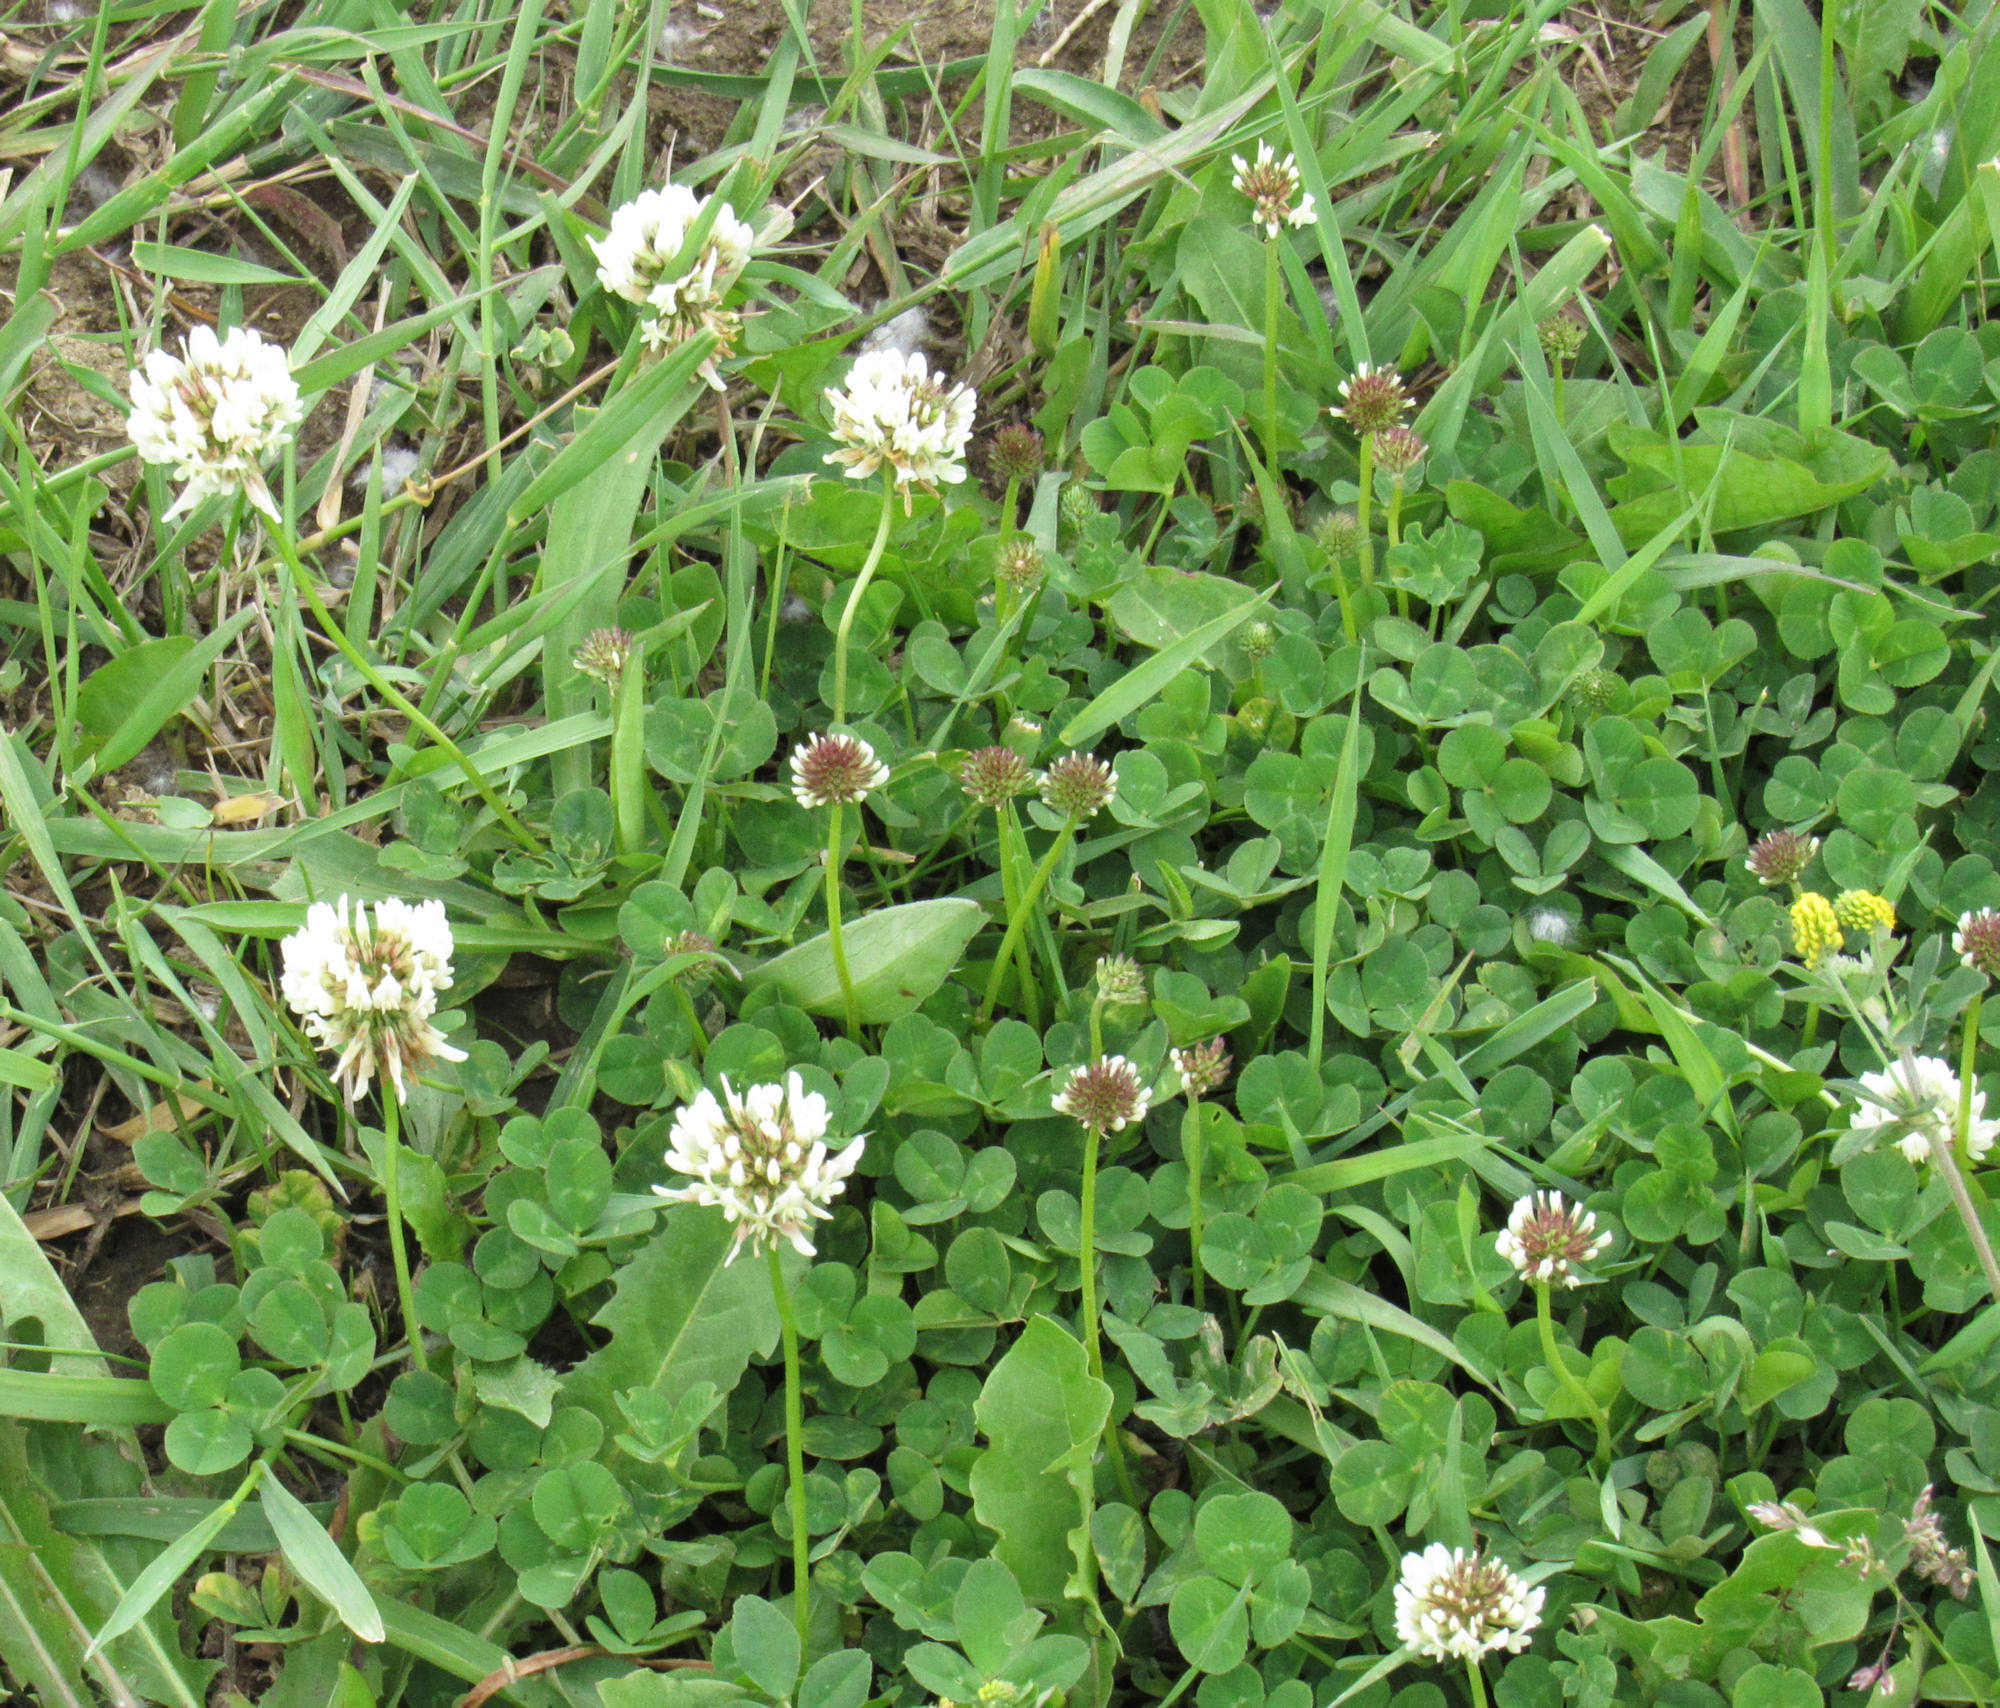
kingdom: Plantae
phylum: Tracheophyta
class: Magnoliopsida
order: Fabales
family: Fabaceae
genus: Trifolium
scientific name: Trifolium repens
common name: White clover
